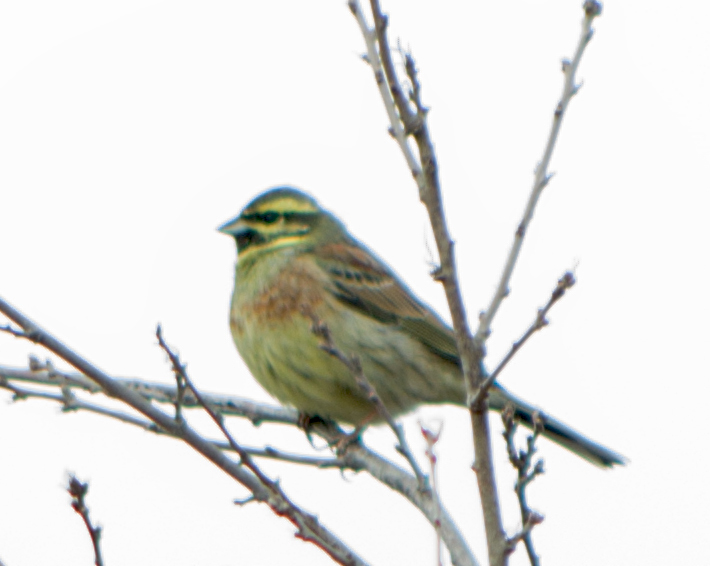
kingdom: Animalia
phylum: Chordata
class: Aves
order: Passeriformes
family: Emberizidae
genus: Emberiza
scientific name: Emberiza cirlus
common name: Cirl bunting
